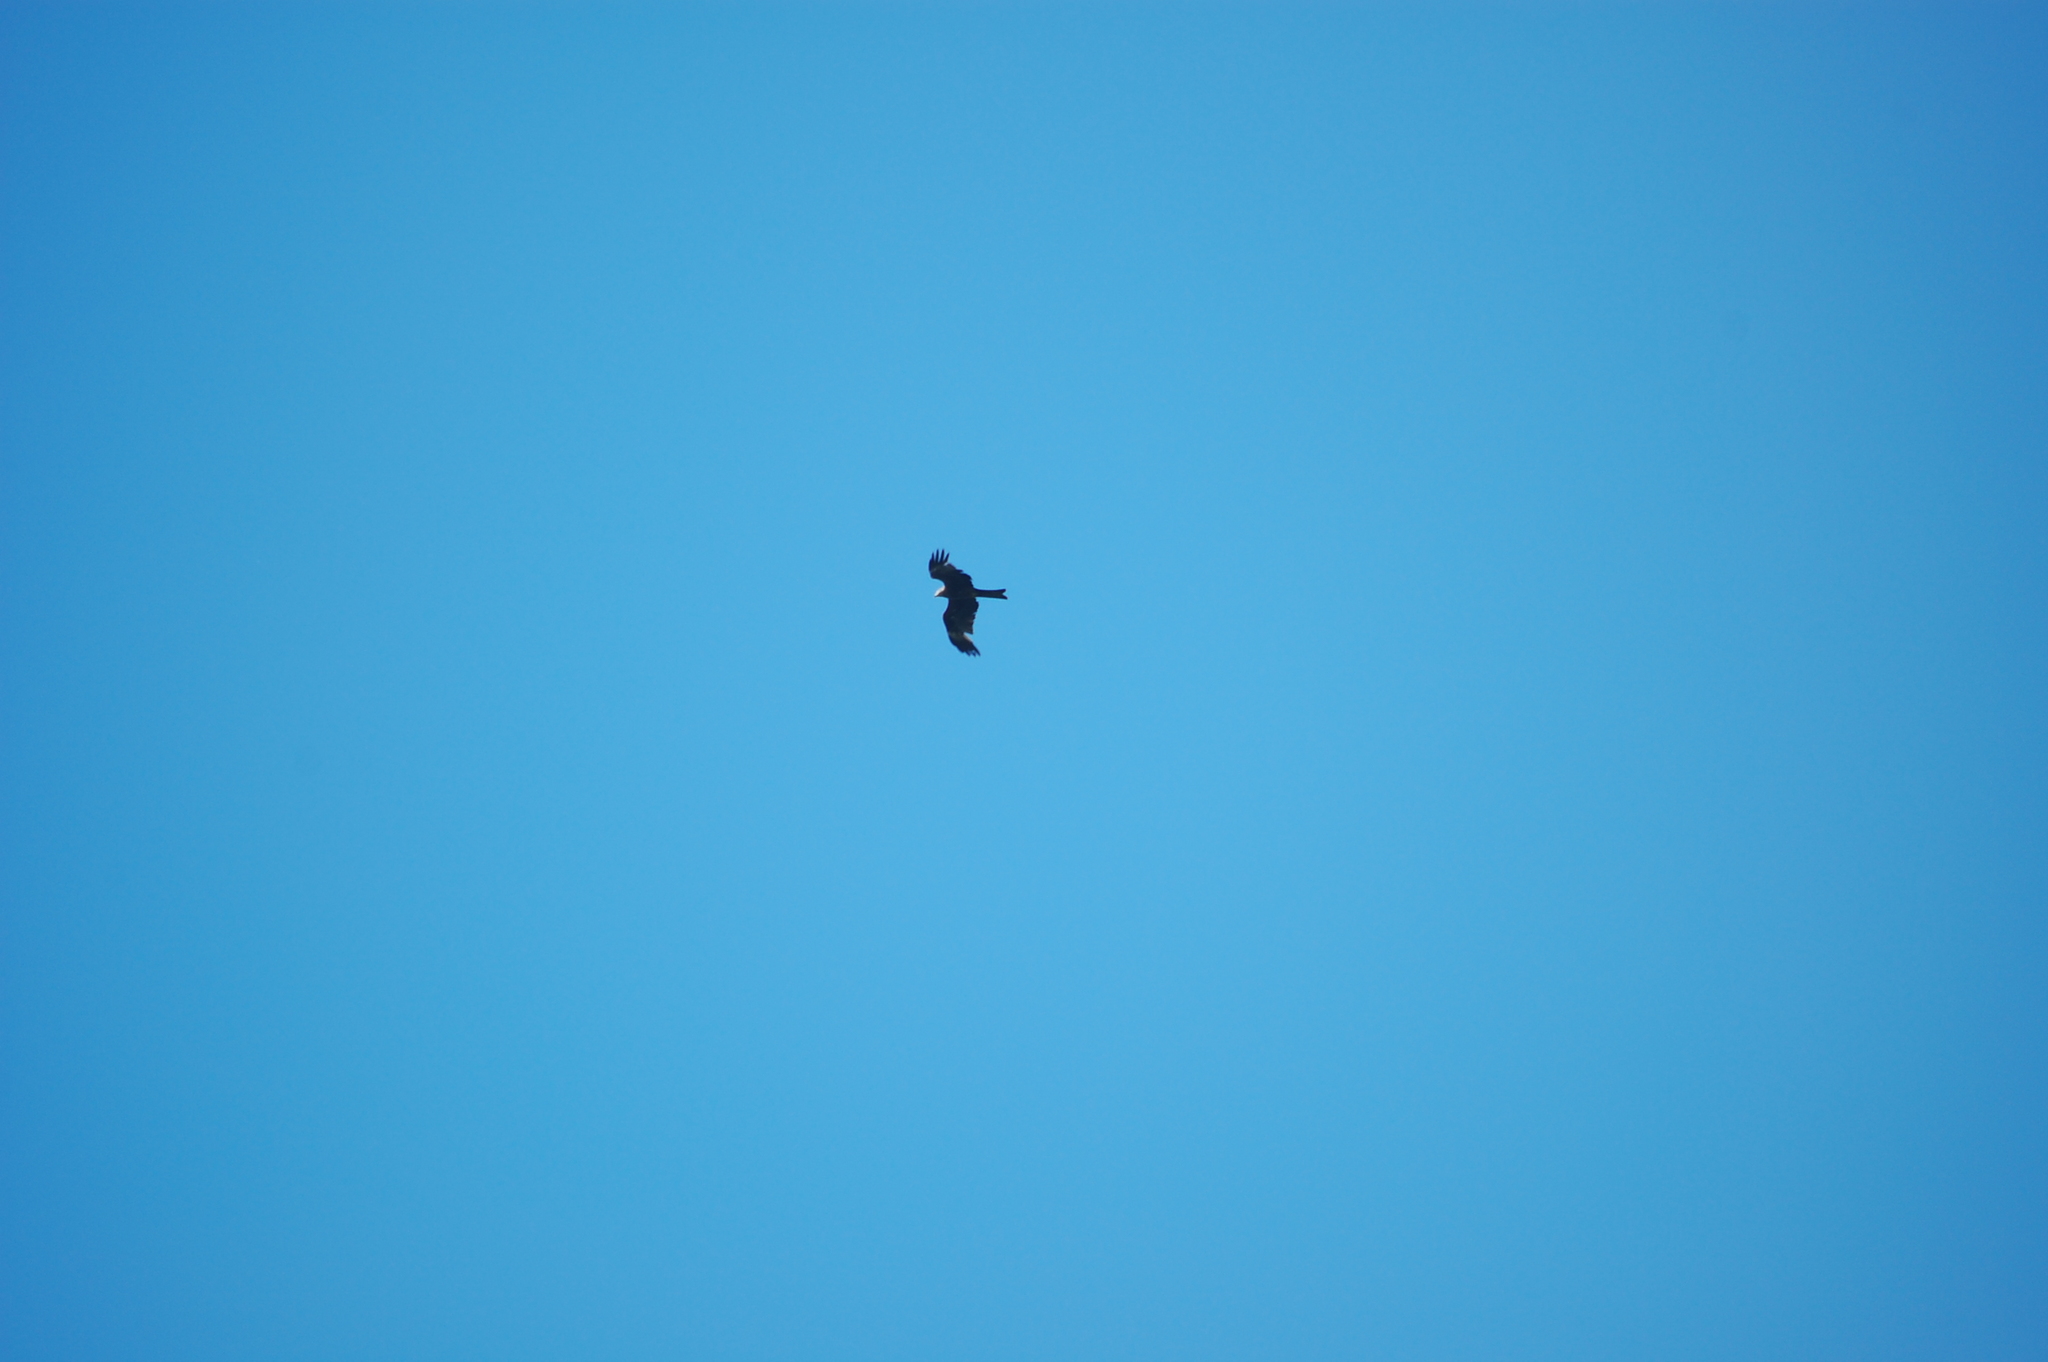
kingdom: Animalia
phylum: Chordata
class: Aves
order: Accipitriformes
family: Accipitridae
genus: Milvus
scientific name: Milvus migrans
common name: Black kite
